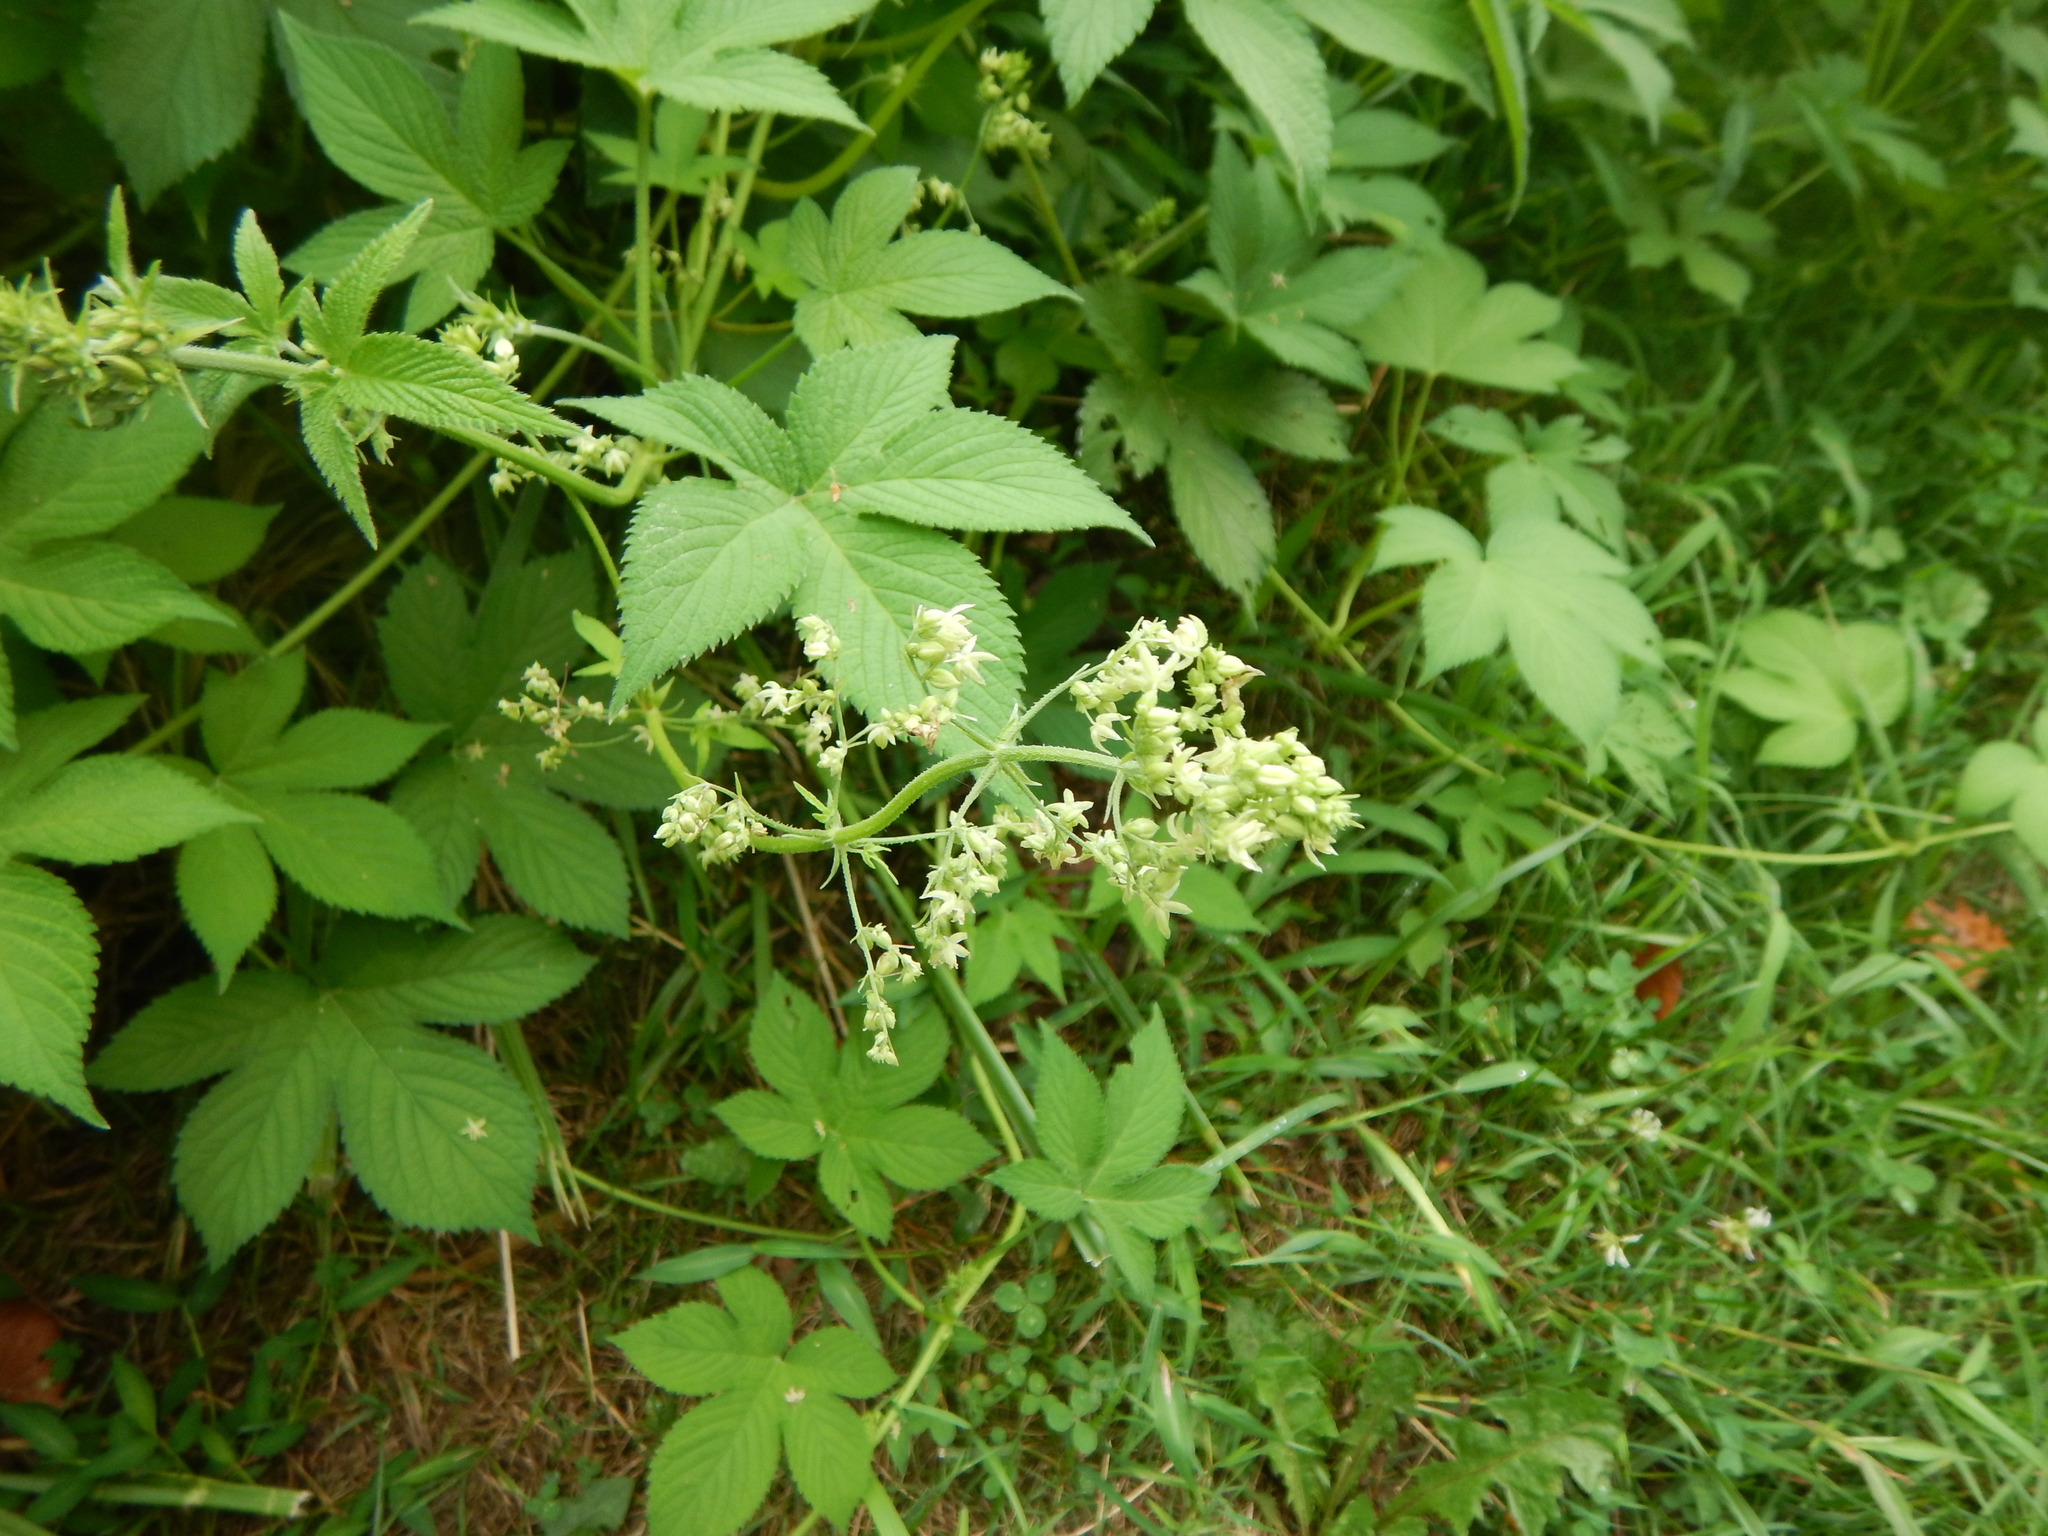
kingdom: Plantae
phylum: Tracheophyta
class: Magnoliopsida
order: Rosales
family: Cannabaceae
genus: Humulus
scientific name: Humulus scandens
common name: Japanese hop
